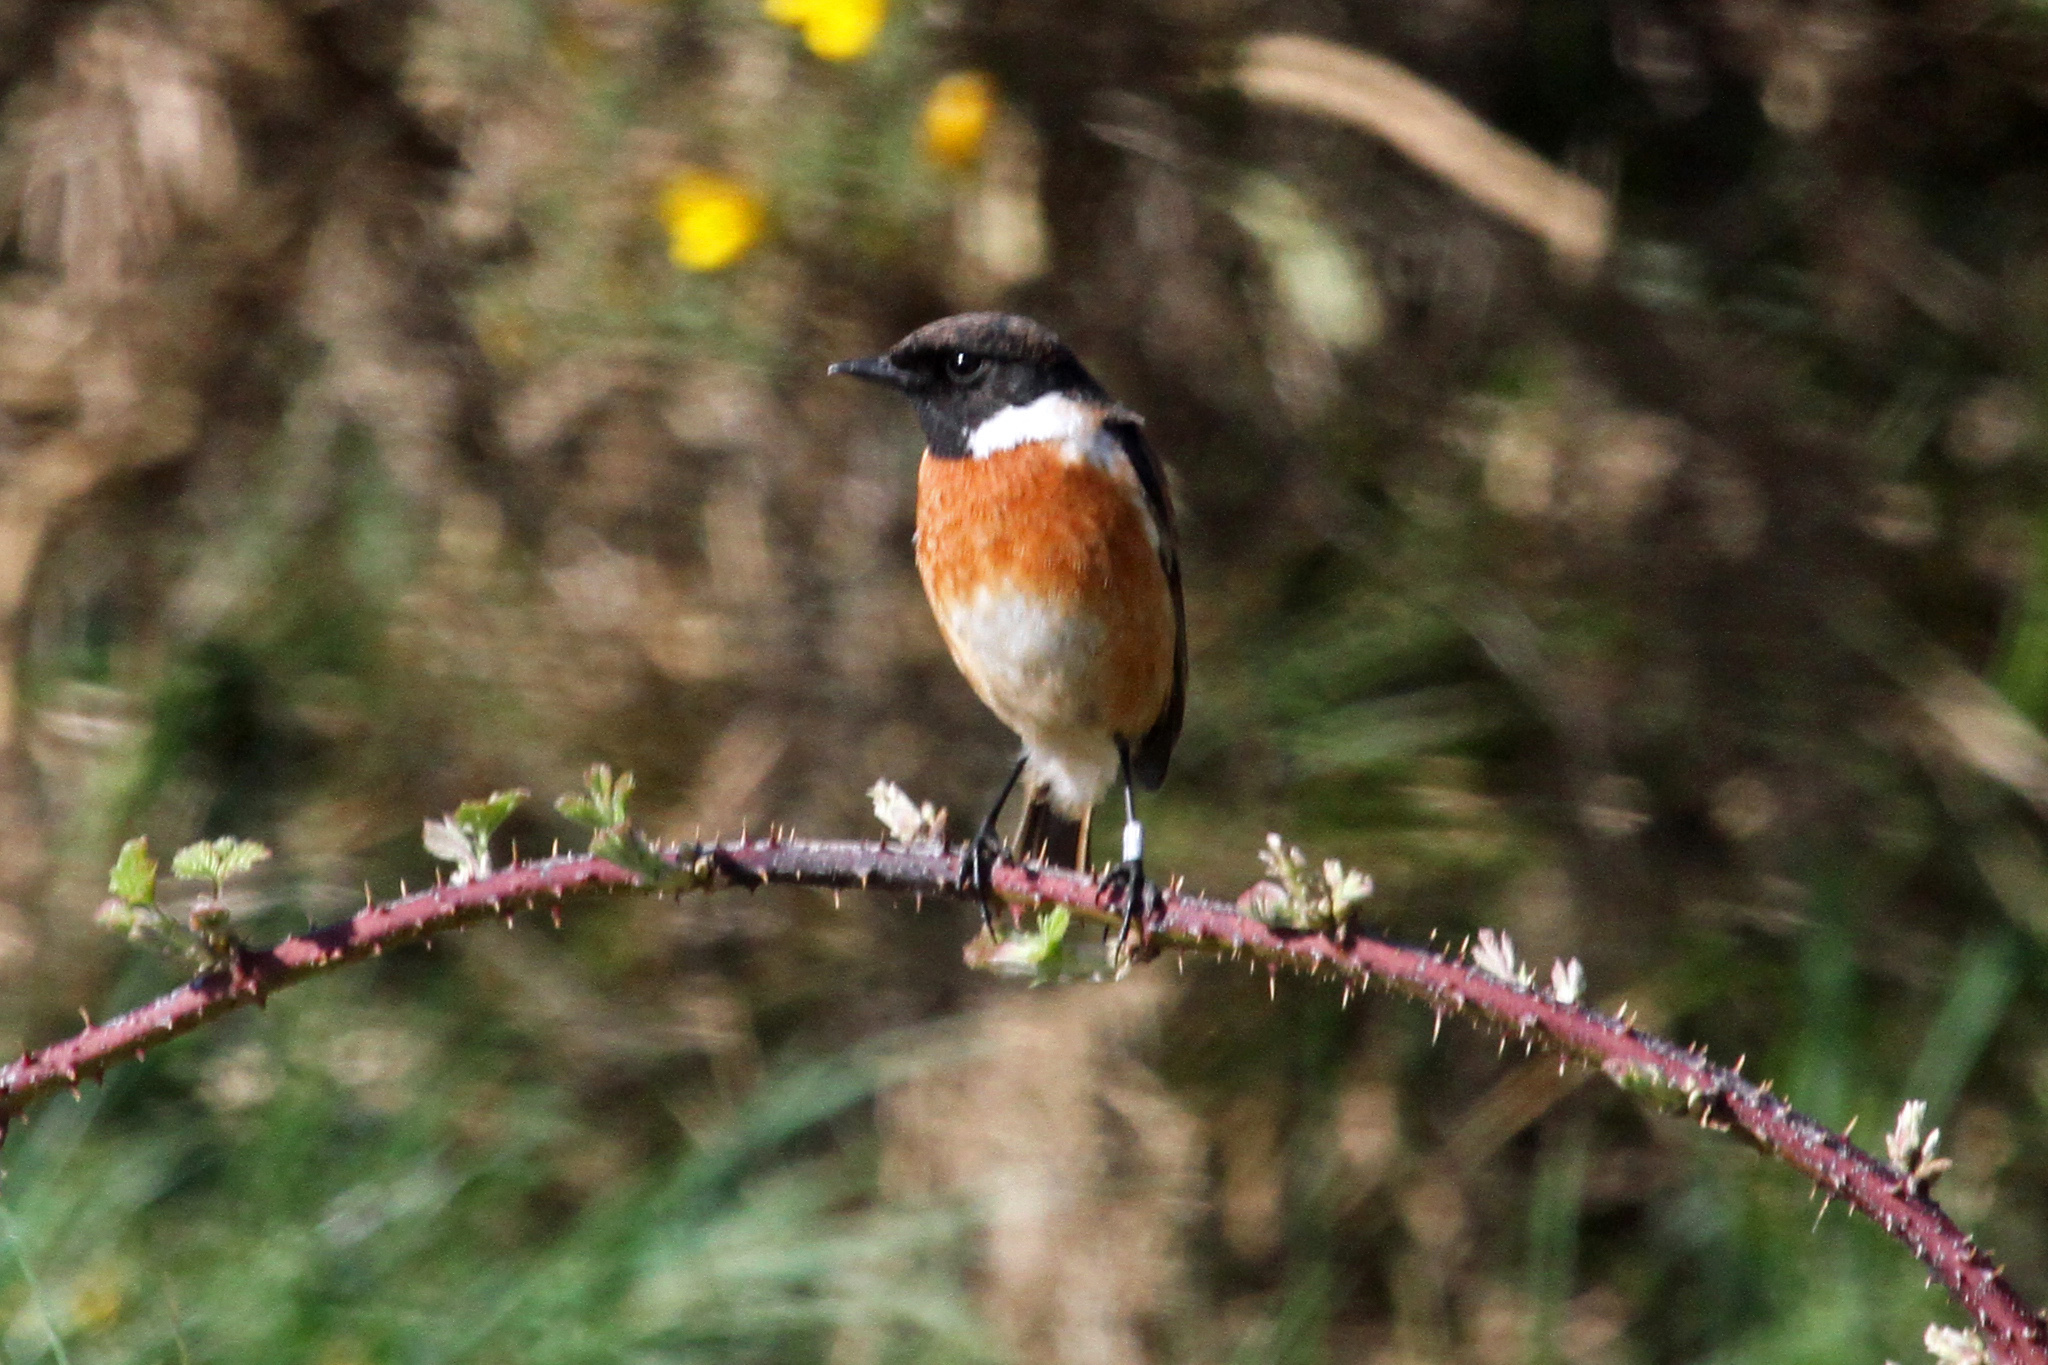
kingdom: Animalia
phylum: Chordata
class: Aves
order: Passeriformes
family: Muscicapidae
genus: Saxicola
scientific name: Saxicola rubicola
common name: European stonechat
